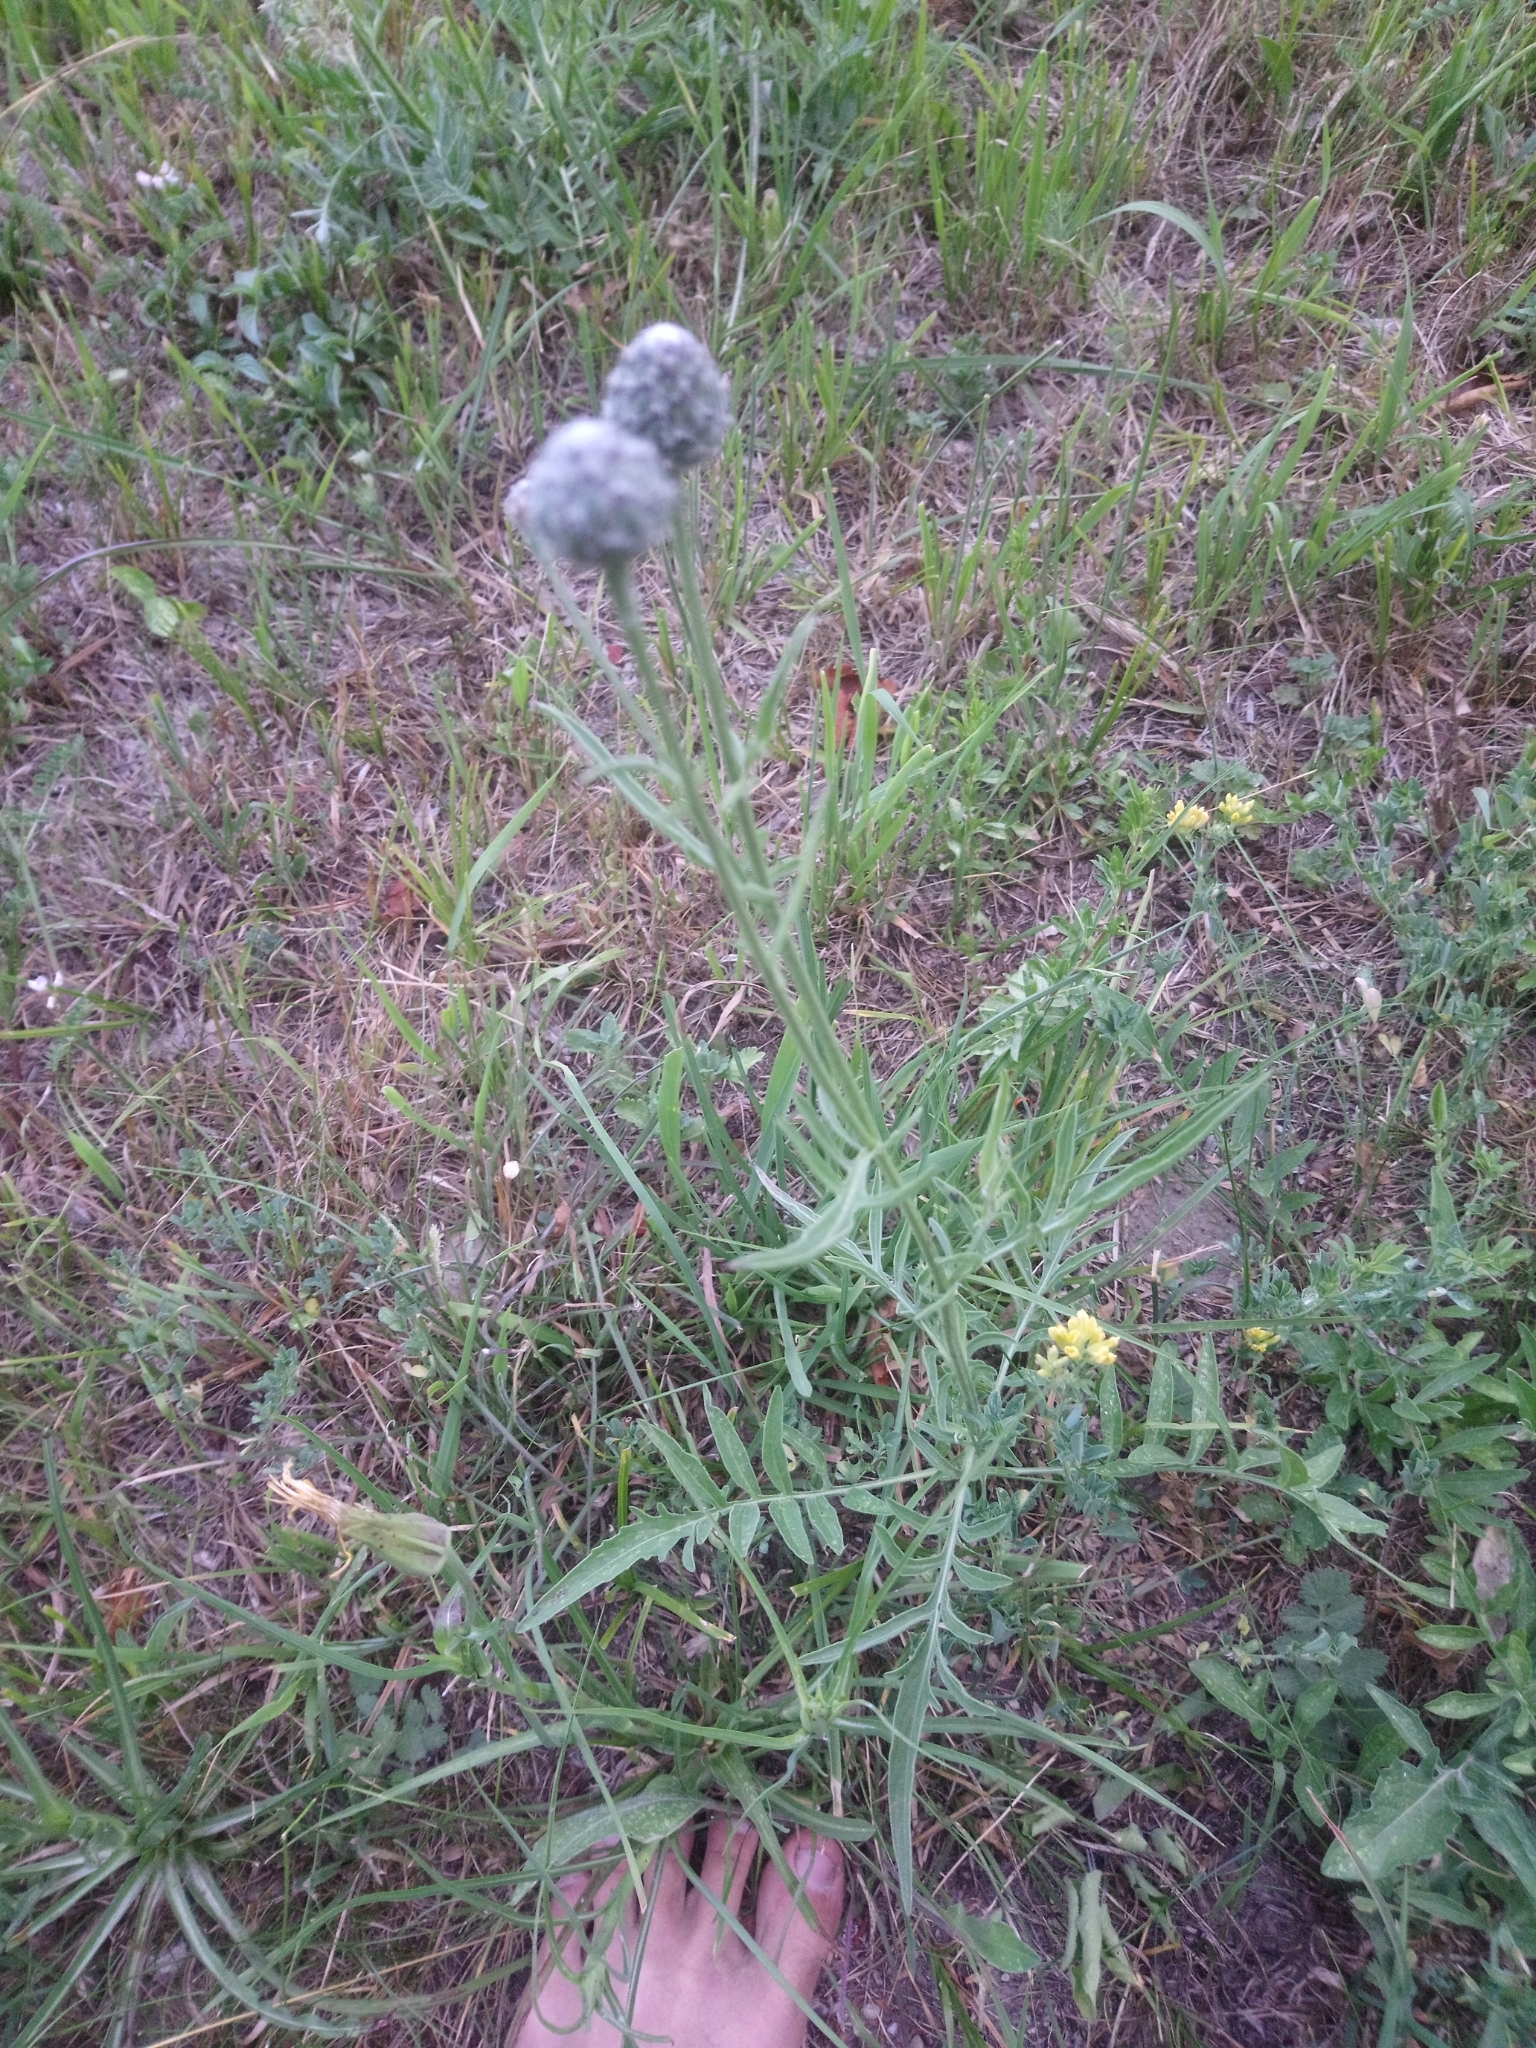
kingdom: Plantae
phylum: Tracheophyta
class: Magnoliopsida
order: Asterales
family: Asteraceae
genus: Centaurea
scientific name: Centaurea scabiosa
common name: Greater knapweed
